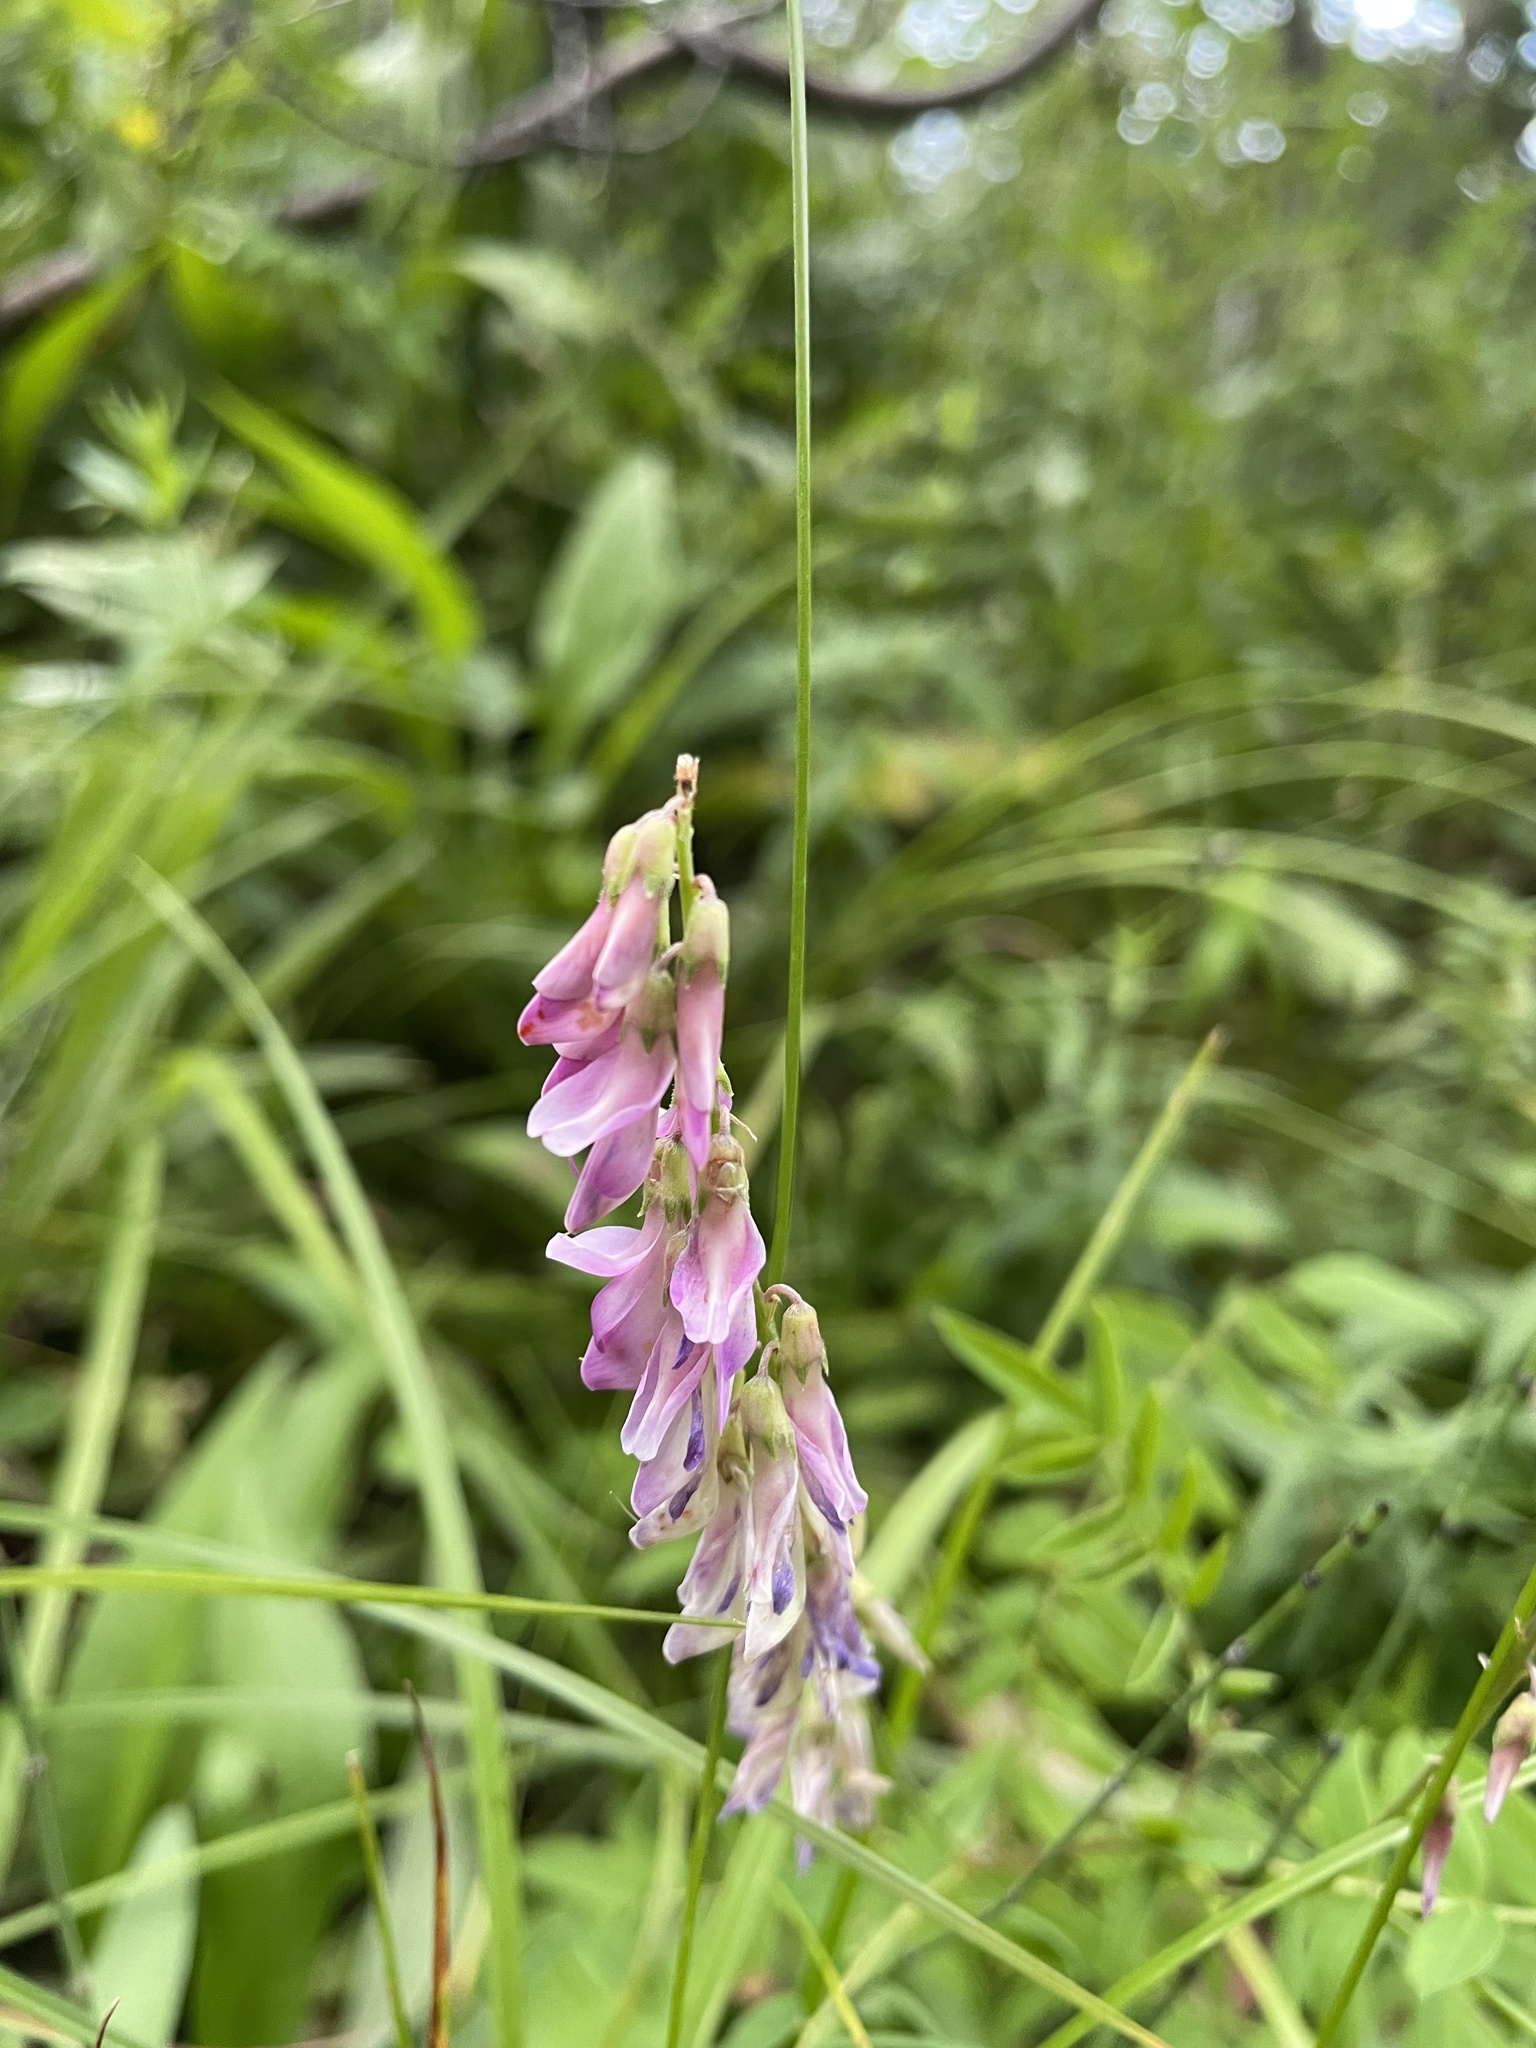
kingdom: Plantae
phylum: Tracheophyta
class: Magnoliopsida
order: Fabales
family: Fabaceae
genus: Hedysarum
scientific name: Hedysarum alpinum
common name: Alpine sweet-vetch
